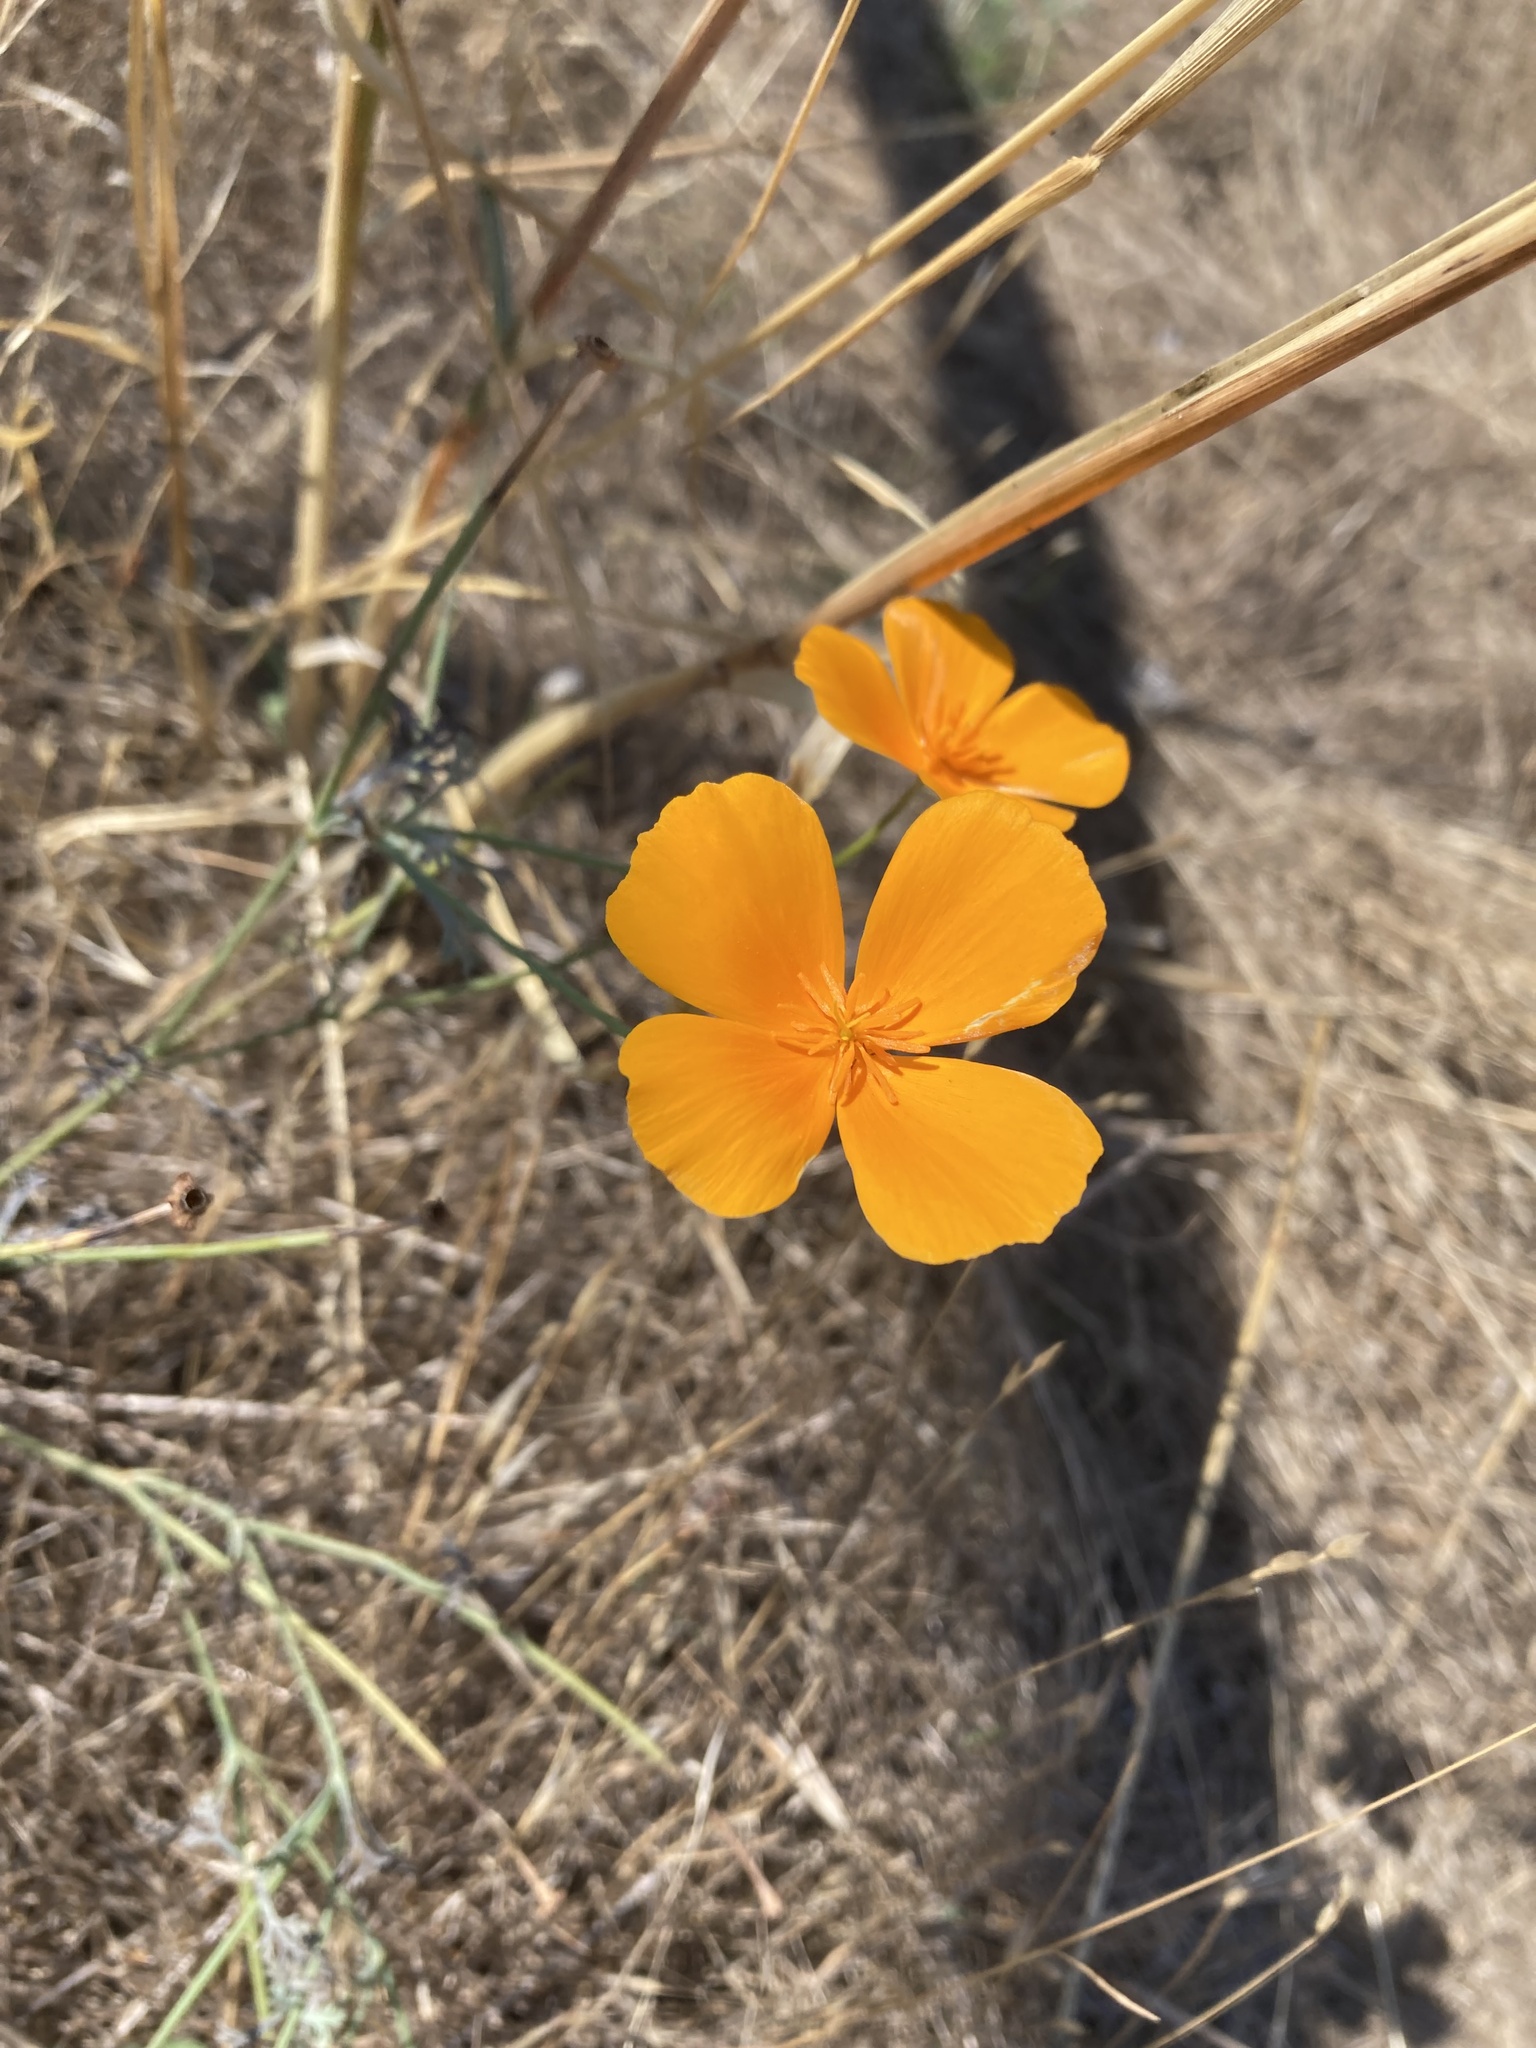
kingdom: Plantae
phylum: Tracheophyta
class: Magnoliopsida
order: Ranunculales
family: Papaveraceae
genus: Eschscholzia
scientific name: Eschscholzia californica
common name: California poppy
